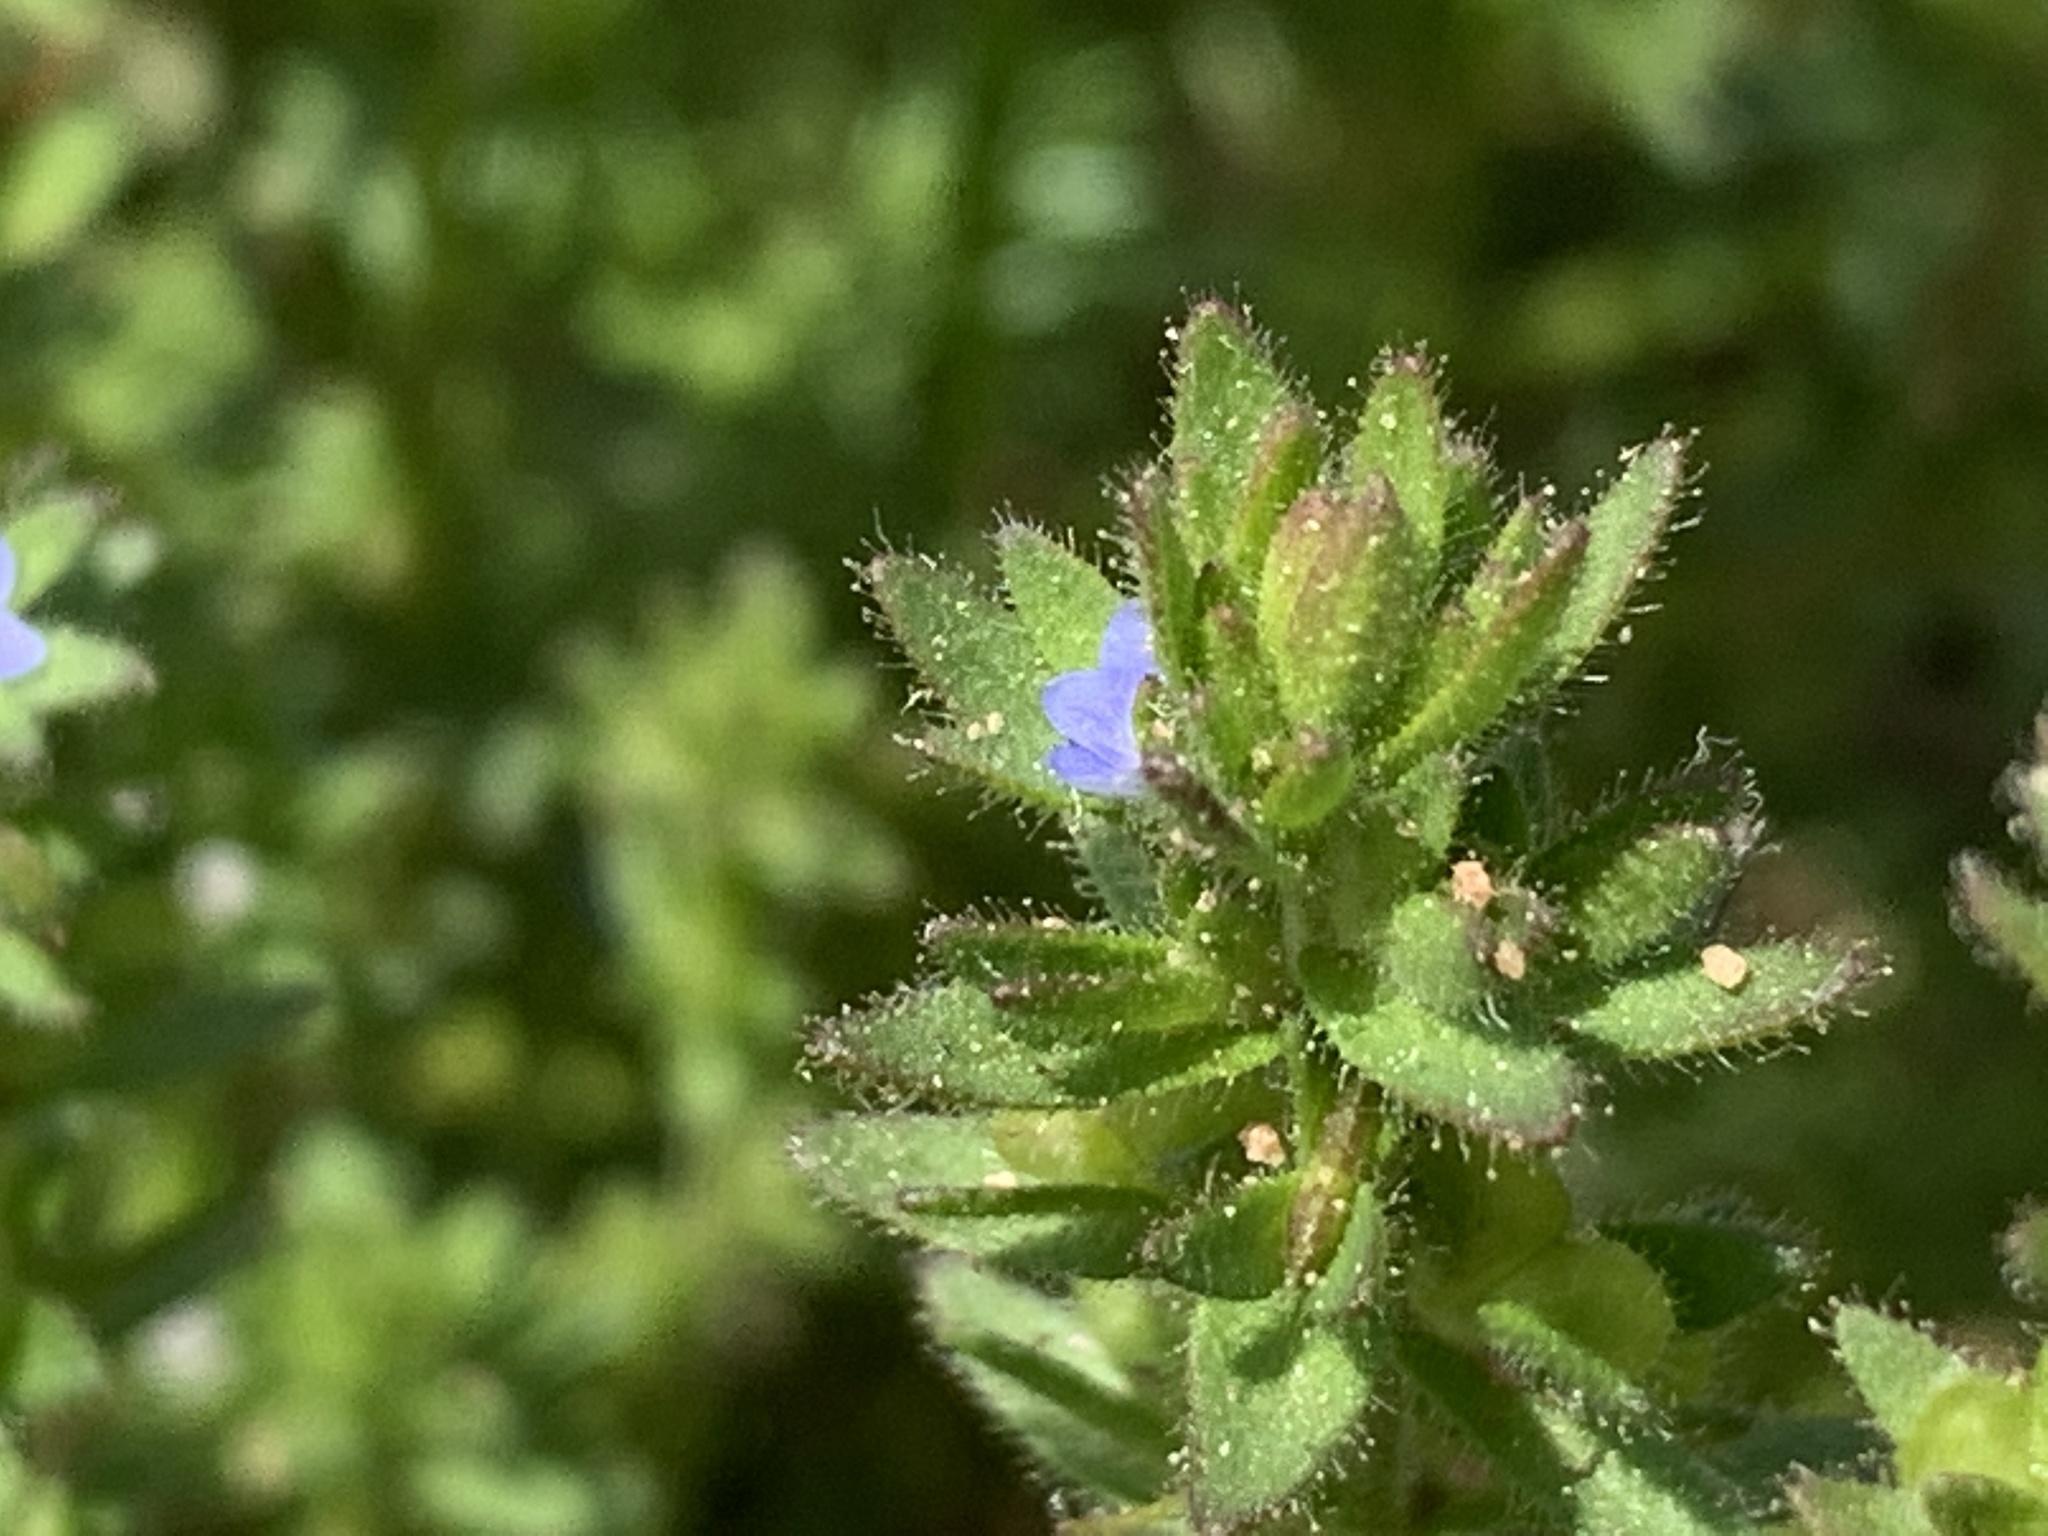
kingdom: Plantae
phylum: Tracheophyta
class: Magnoliopsida
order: Lamiales
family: Plantaginaceae
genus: Veronica
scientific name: Veronica arvensis
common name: Corn speedwell
